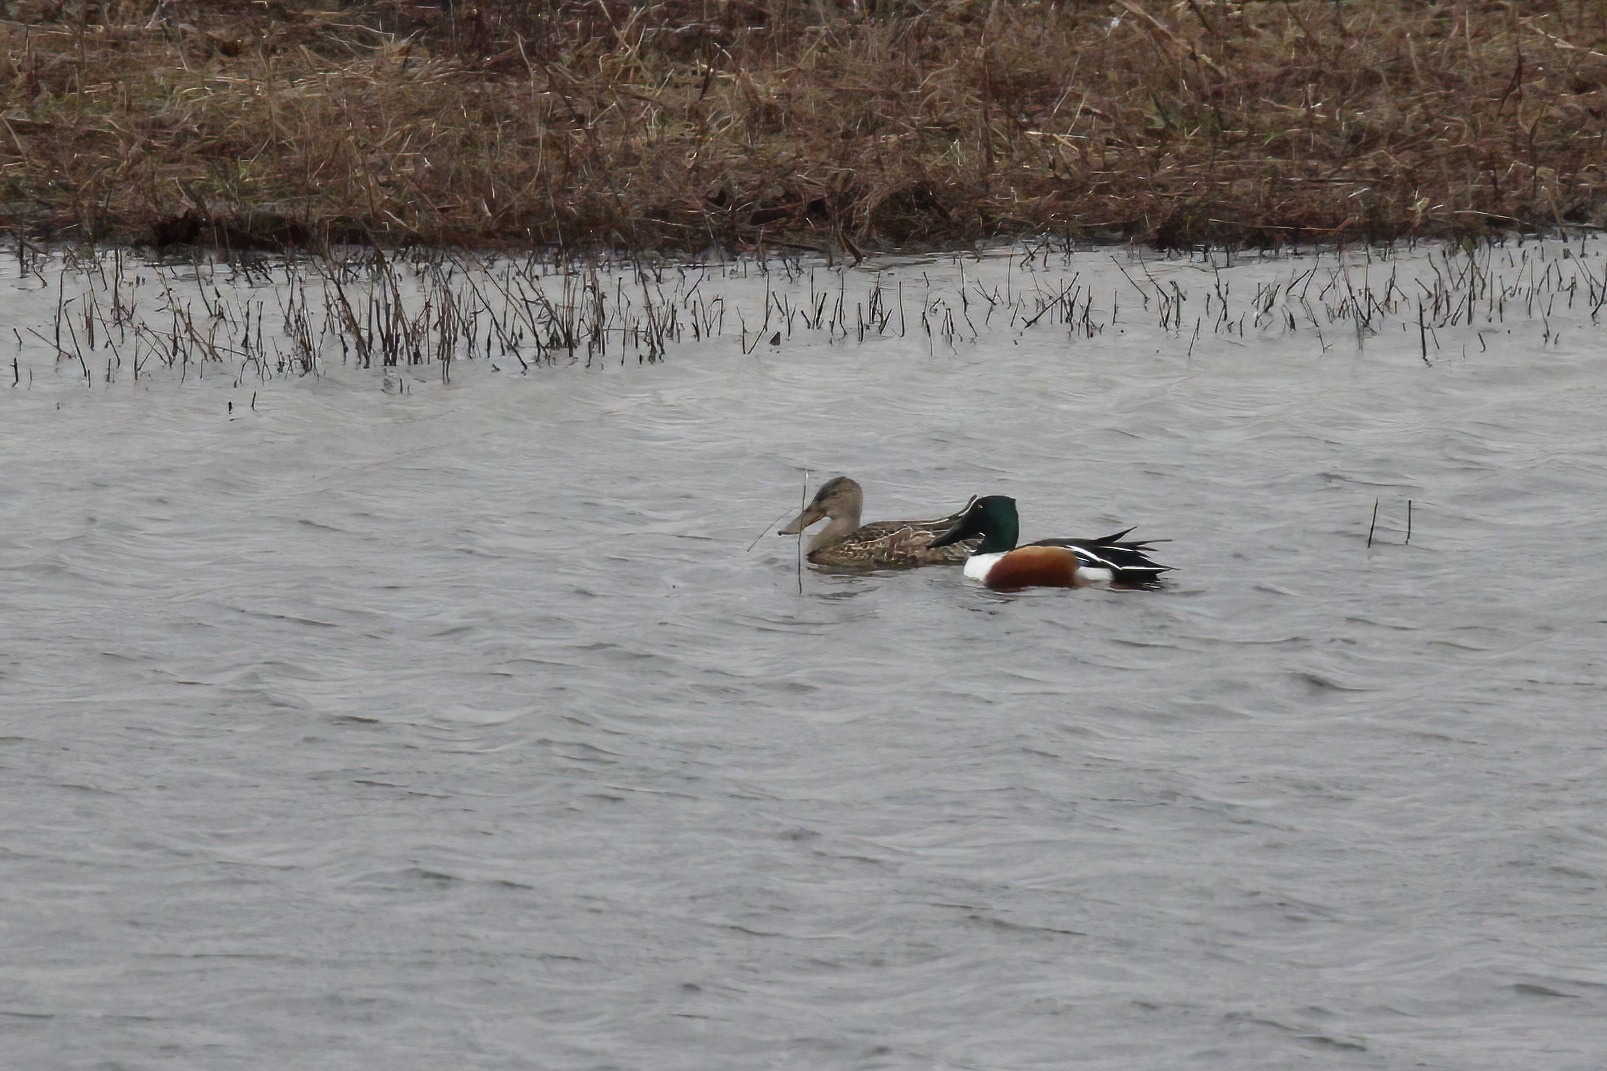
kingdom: Animalia
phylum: Chordata
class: Aves
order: Anseriformes
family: Anatidae
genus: Spatula
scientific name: Spatula clypeata
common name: Northern shoveler
